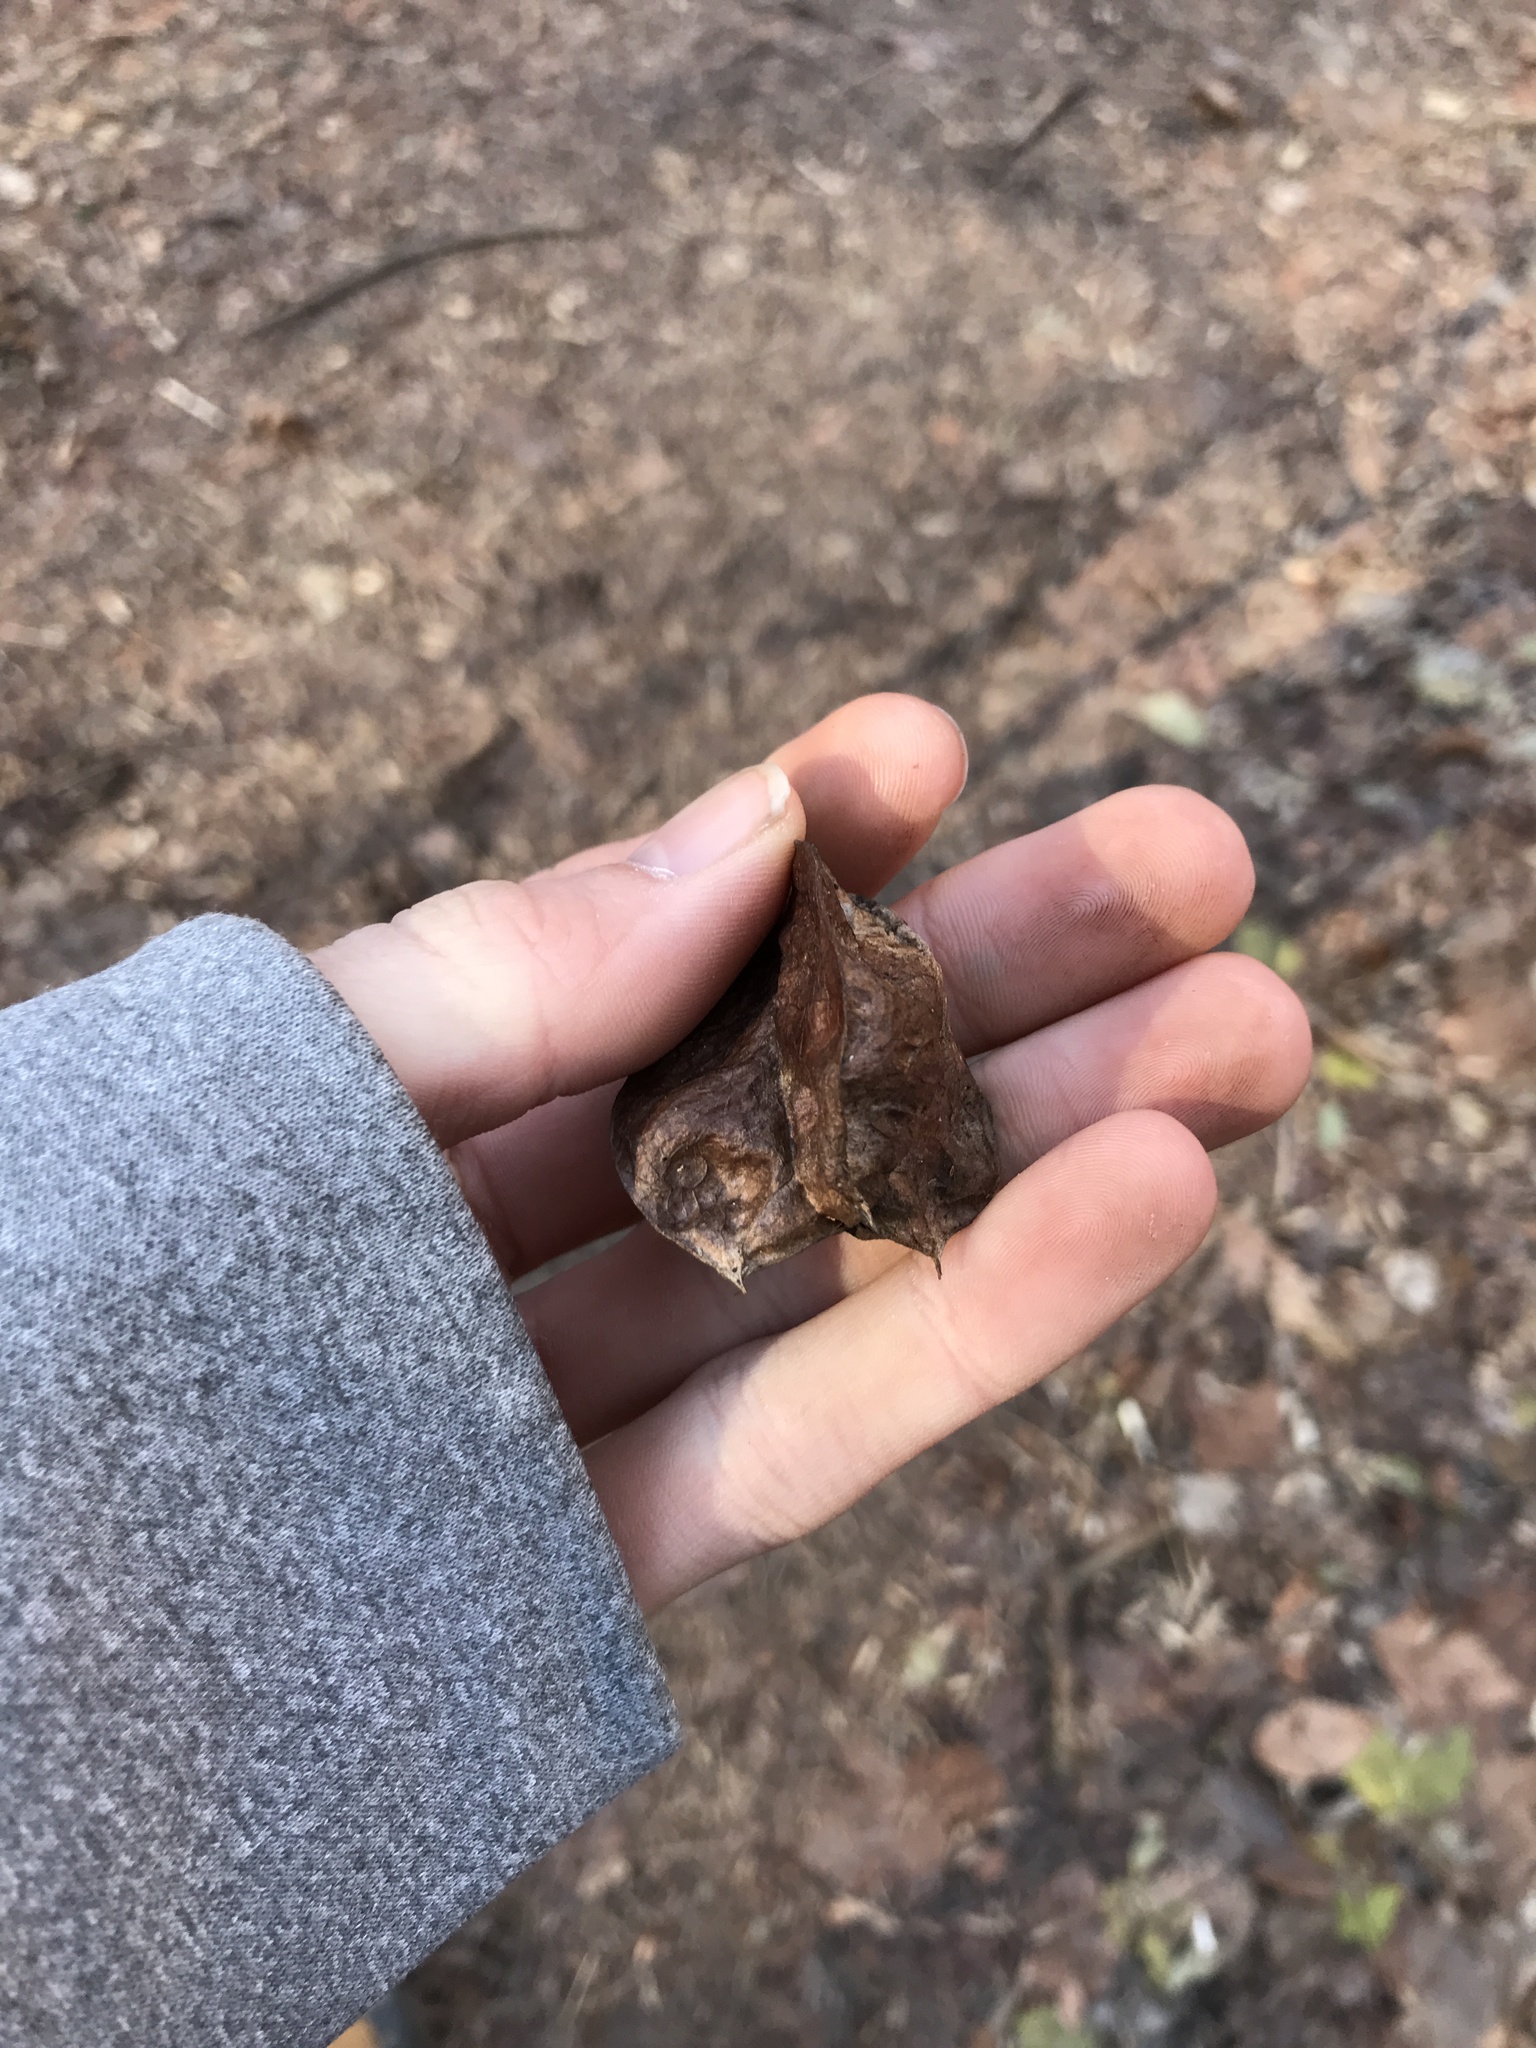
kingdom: Plantae
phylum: Tracheophyta
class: Magnoliopsida
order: Crossosomatales
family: Staphyleaceae
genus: Staphylea
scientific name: Staphylea trifolia
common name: American bladdernut
